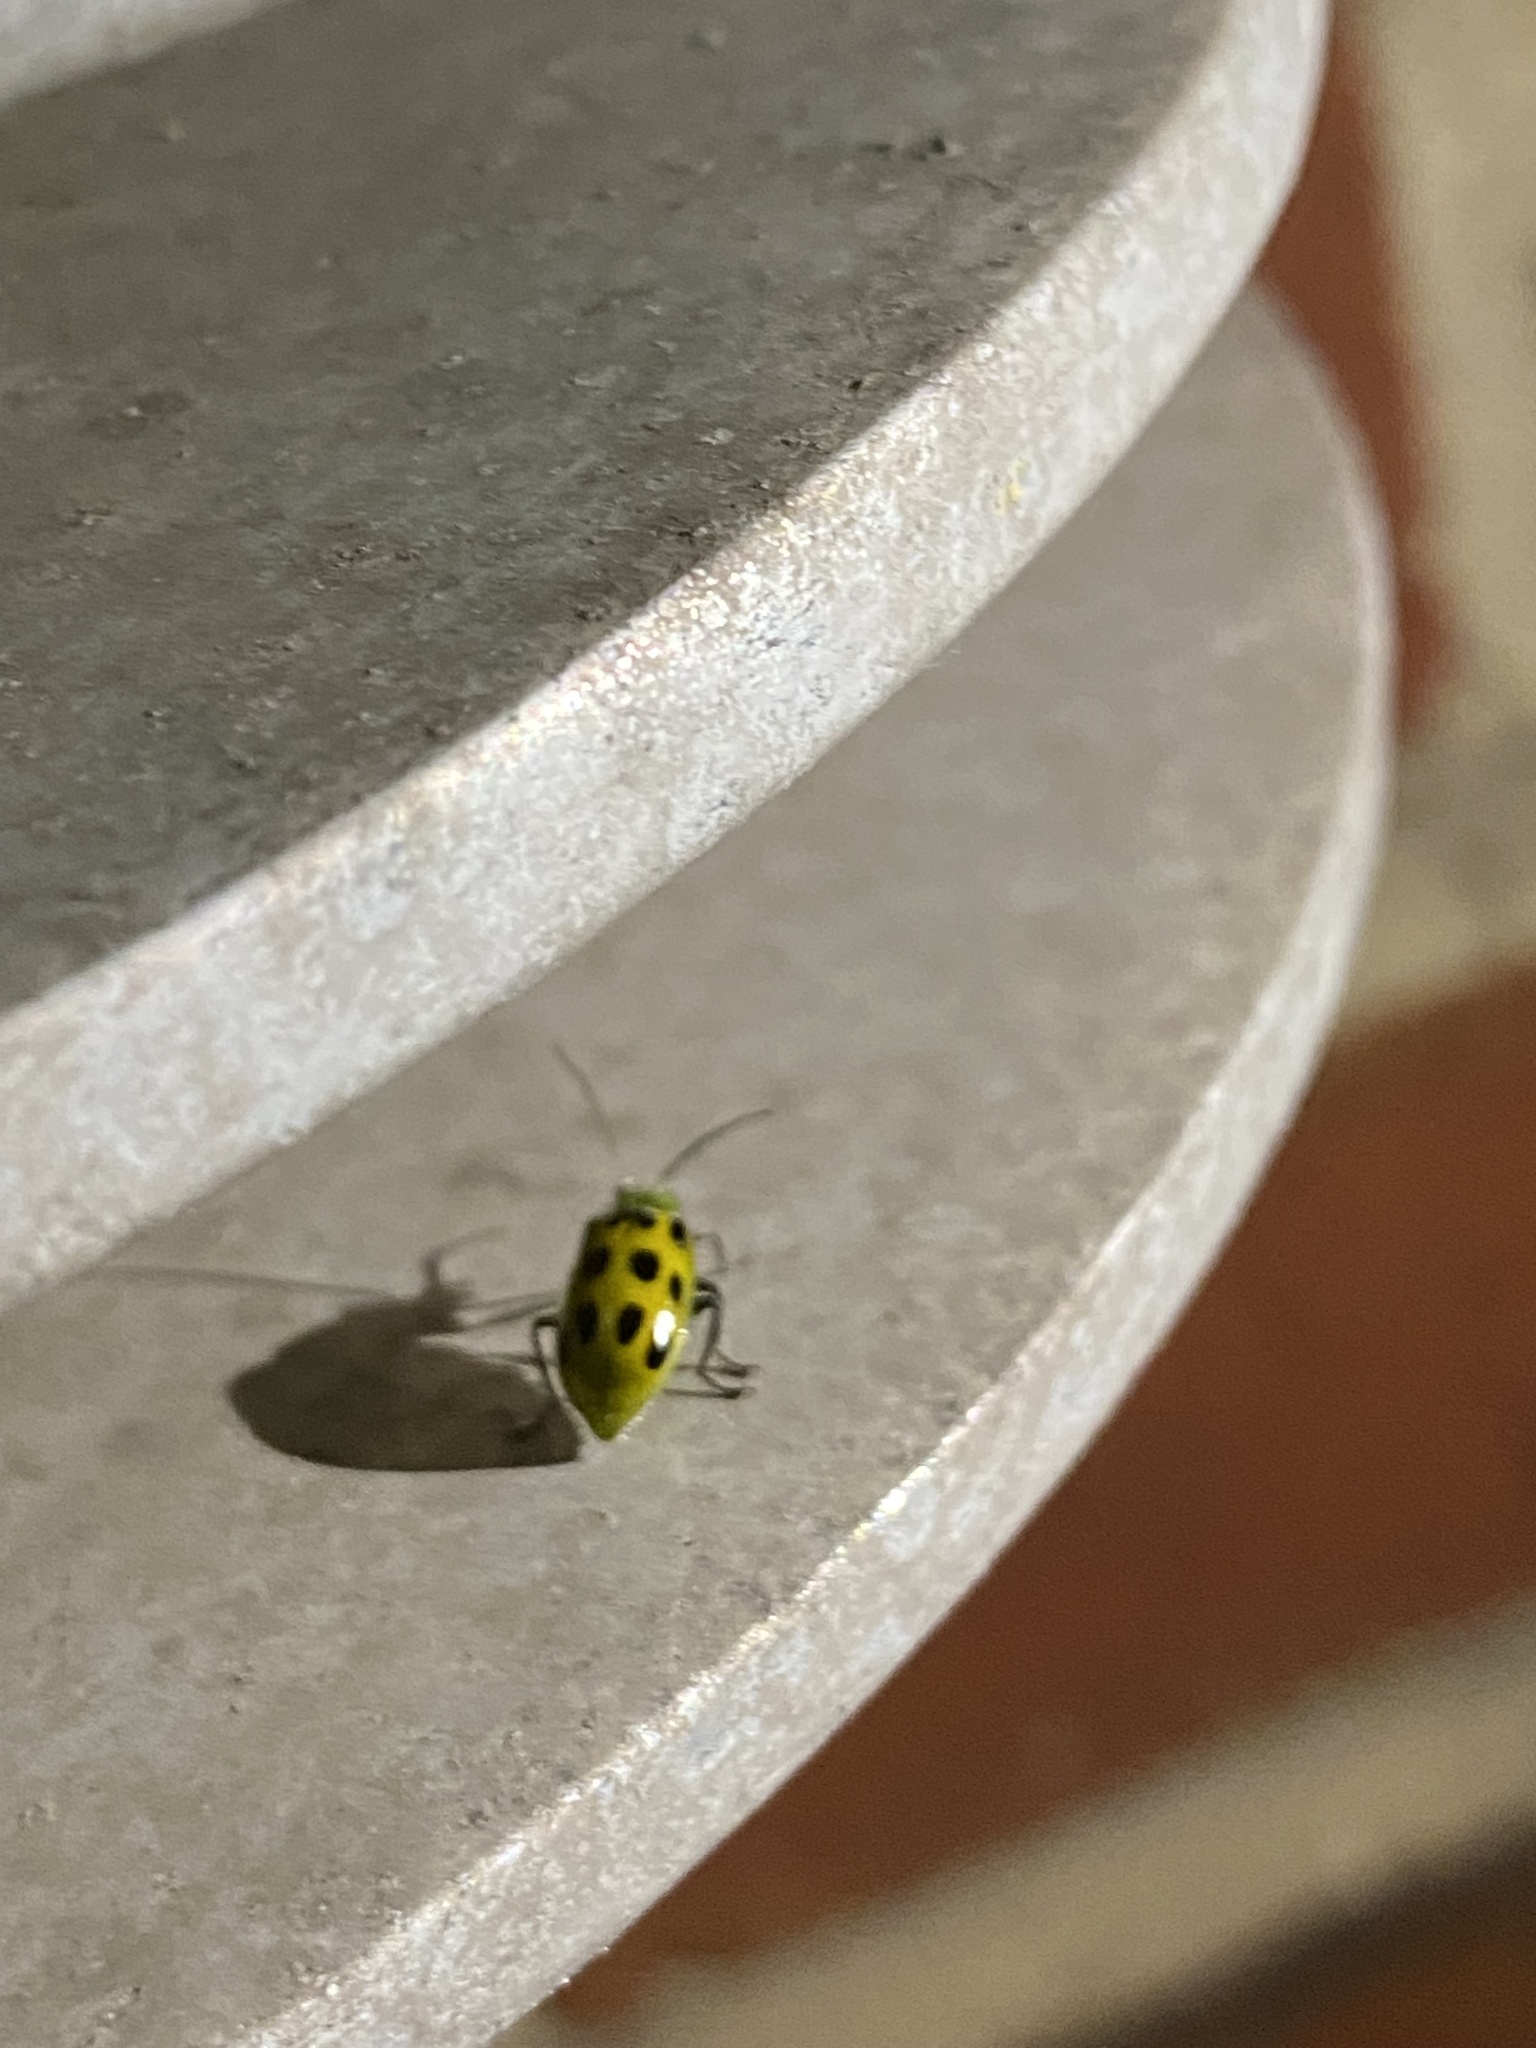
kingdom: Animalia
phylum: Arthropoda
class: Insecta
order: Coleoptera
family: Chrysomelidae
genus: Diabrotica
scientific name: Diabrotica undecimpunctata
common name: Spotted cucumber beetle
